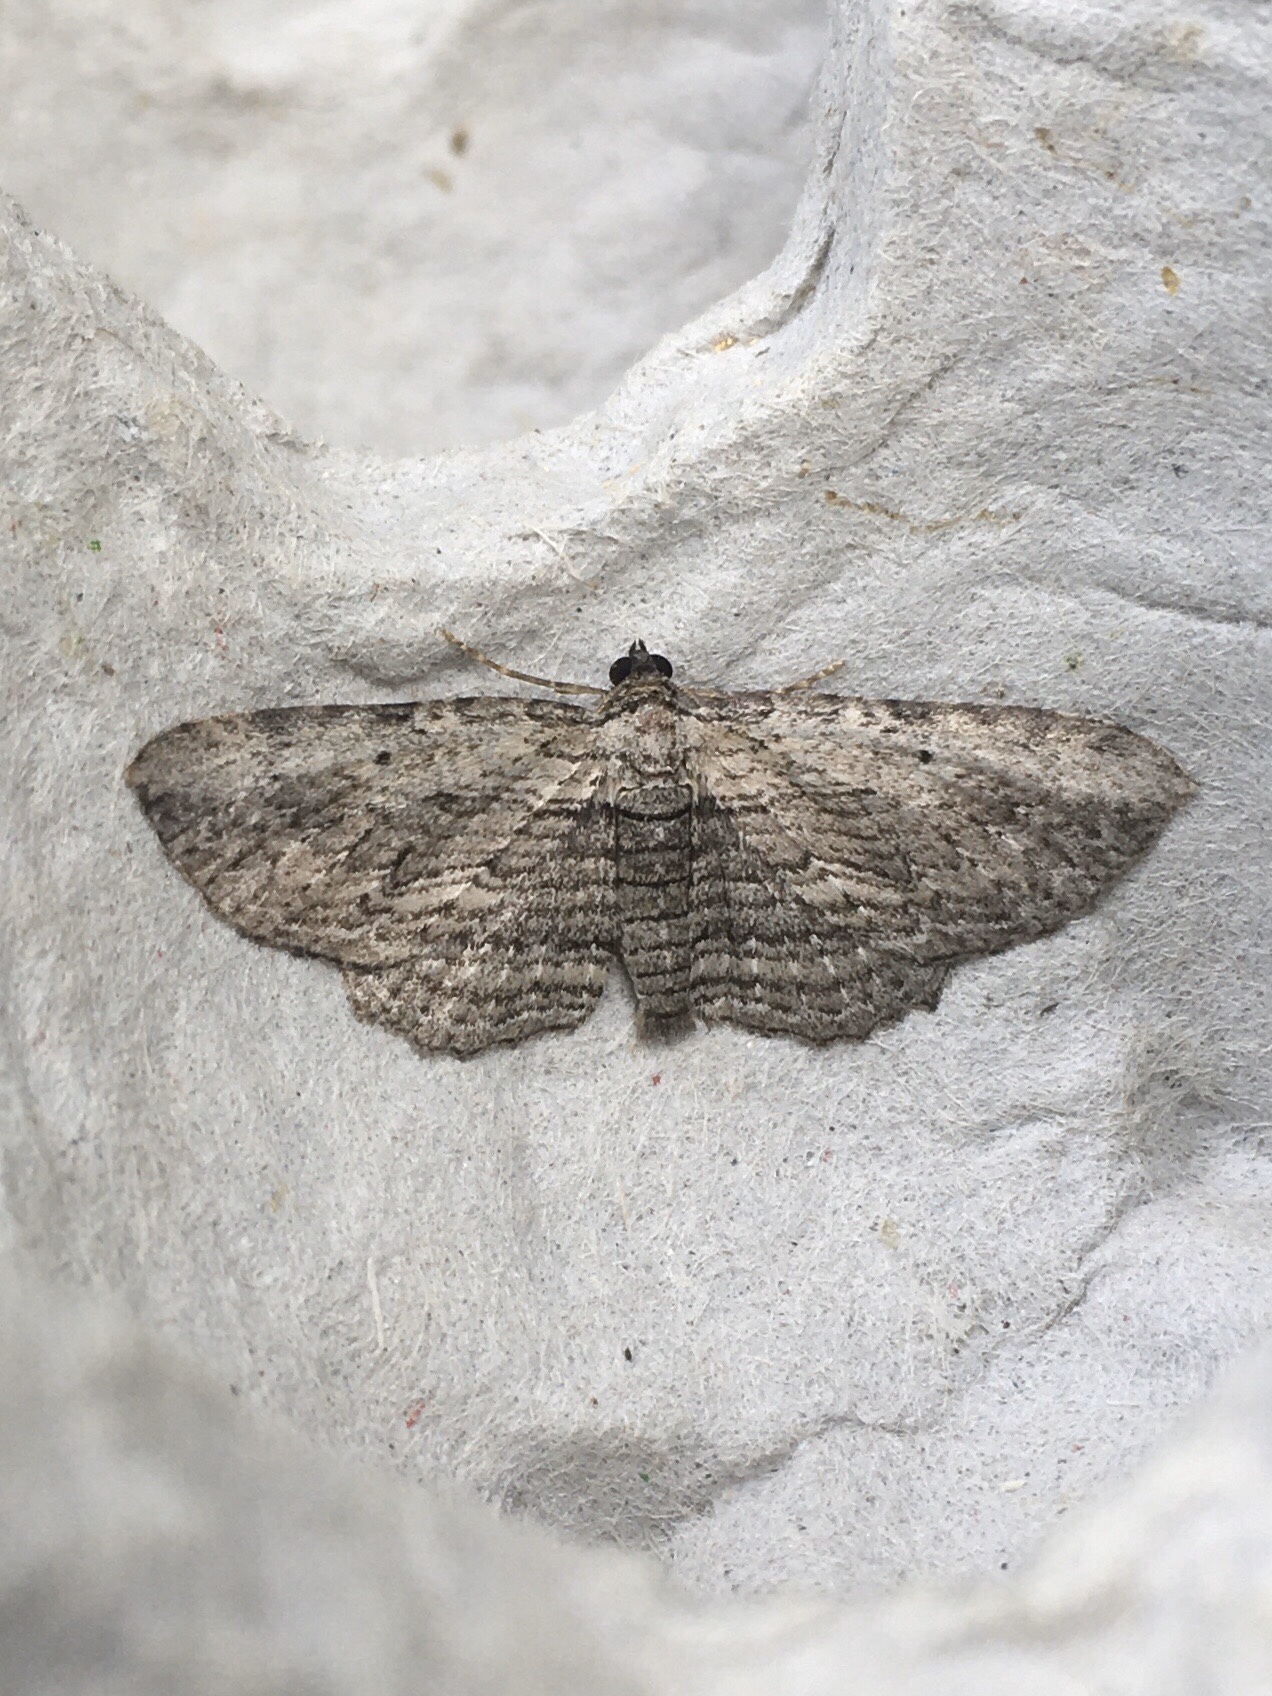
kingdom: Animalia
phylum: Arthropoda
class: Insecta
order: Lepidoptera
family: Geometridae
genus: Horisme
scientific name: Horisme intestinata
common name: Brown bark carpet
